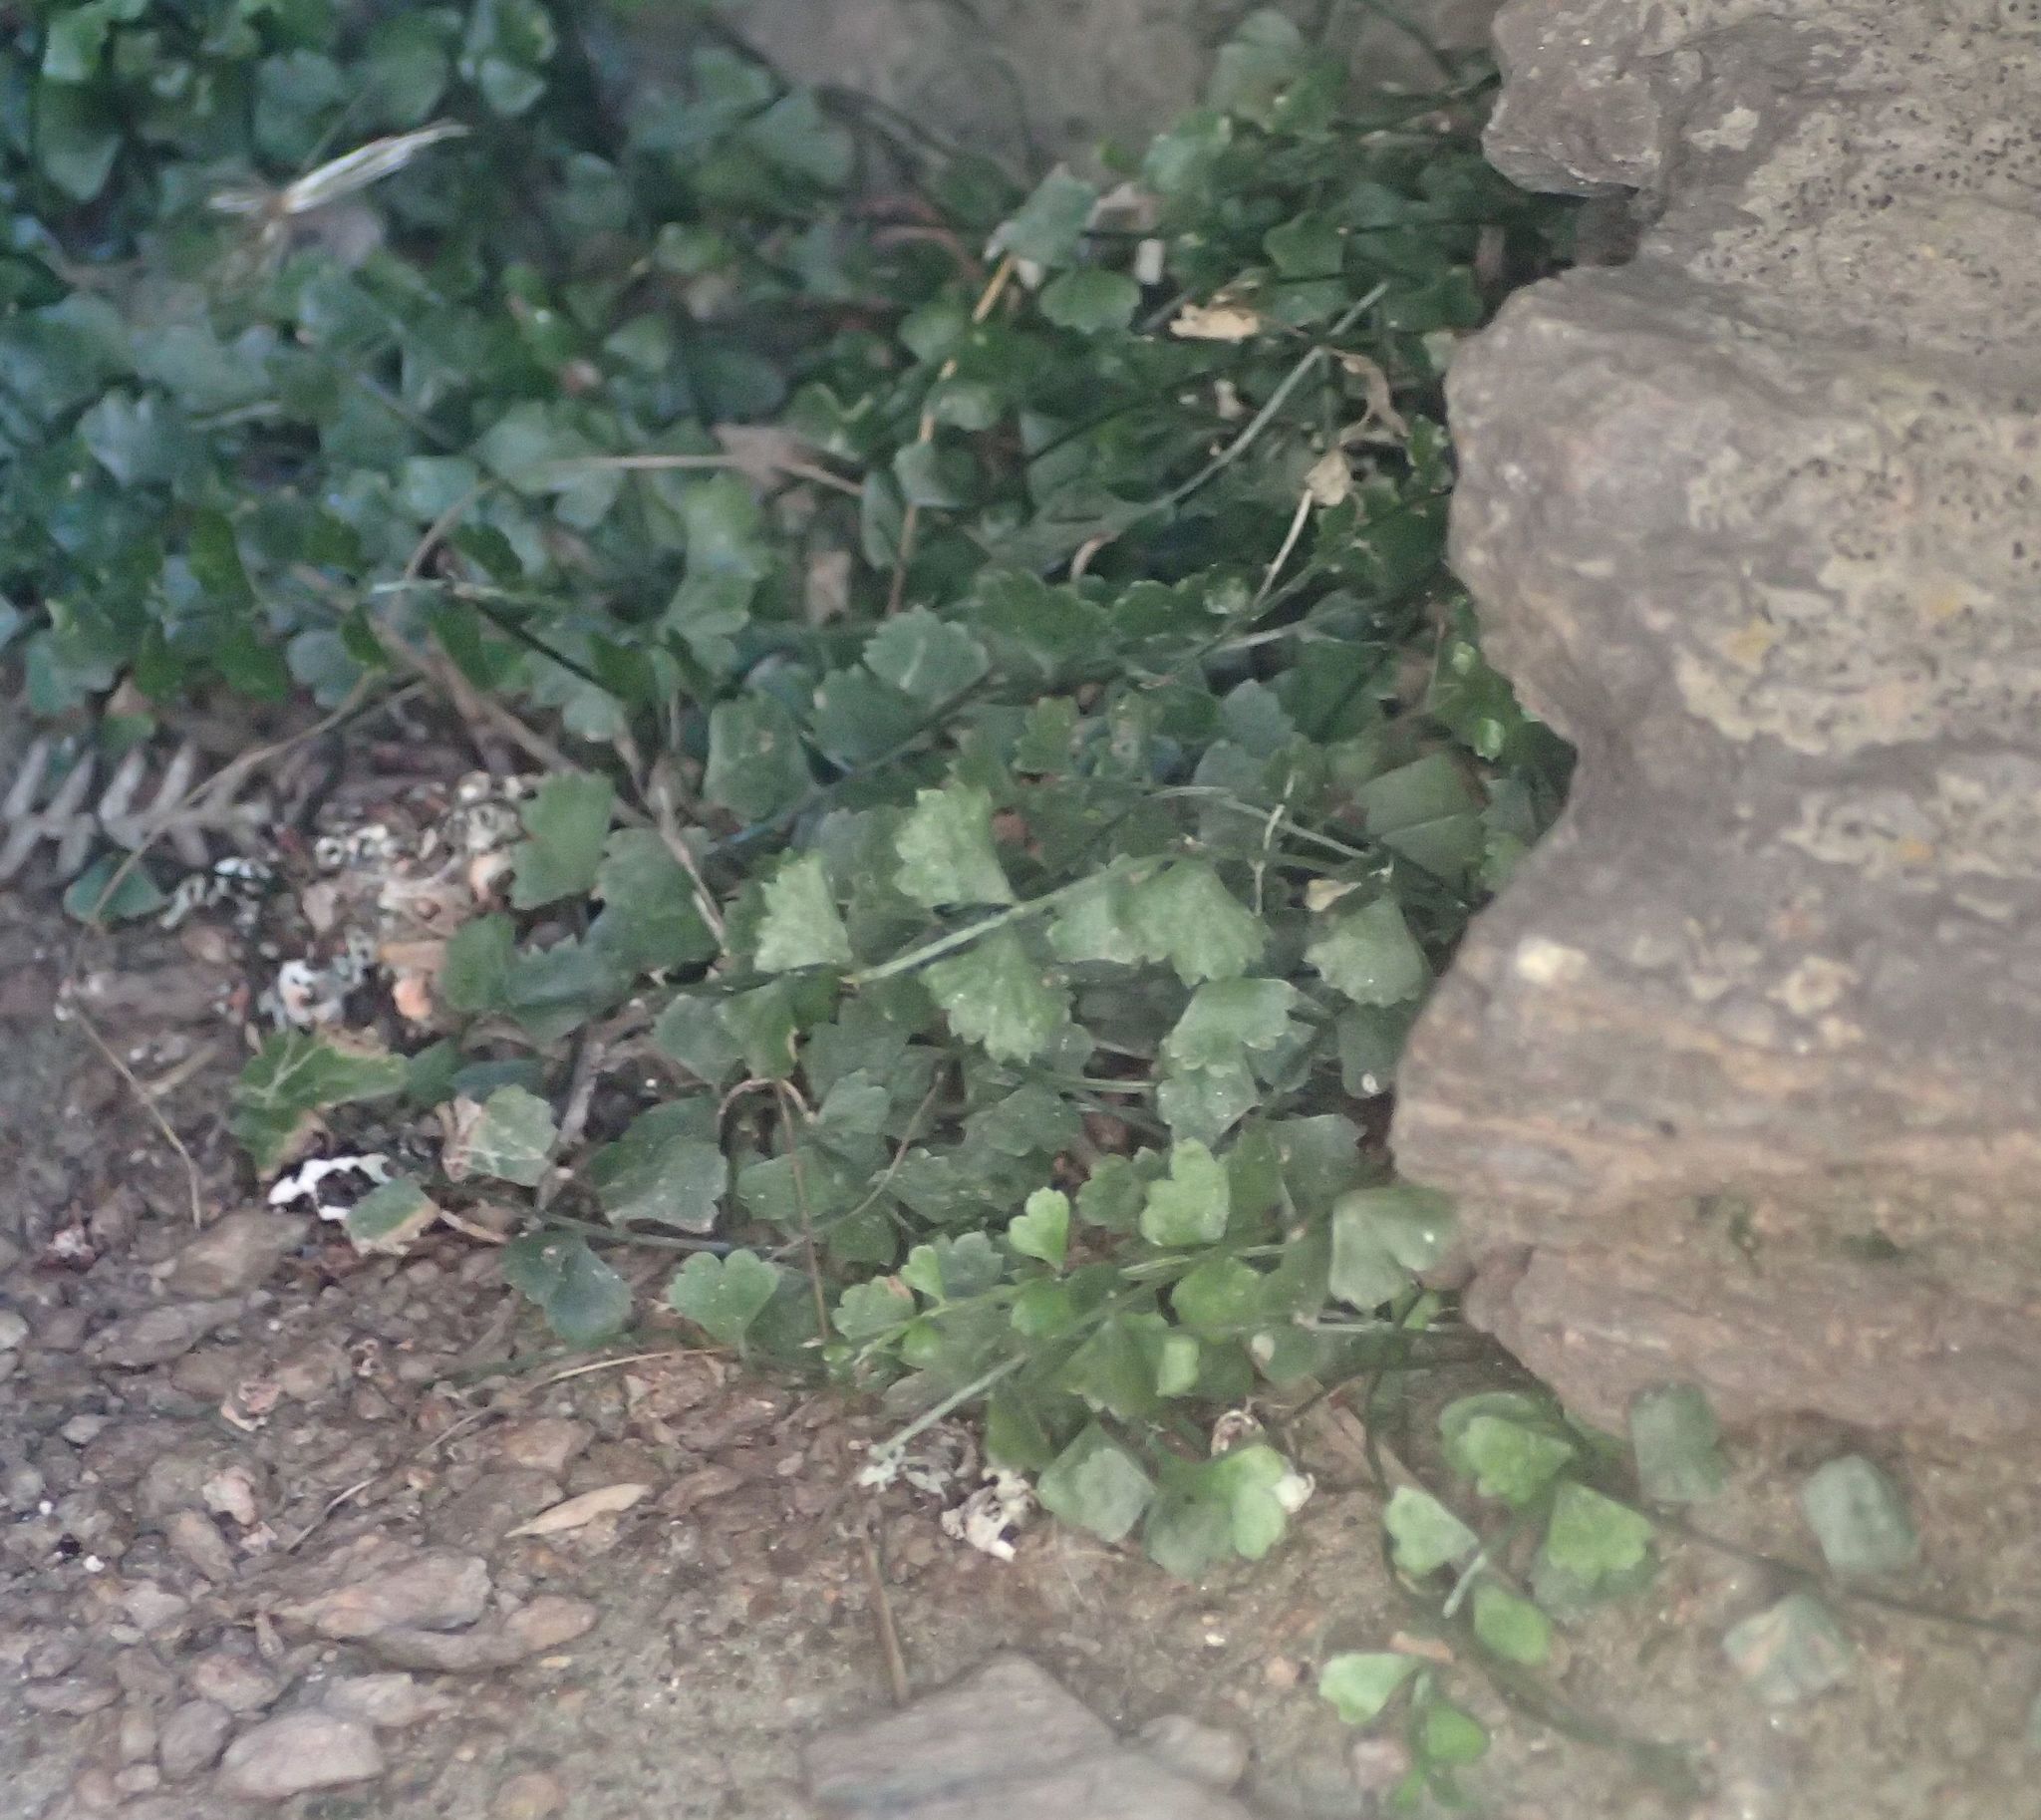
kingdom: Plantae
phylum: Tracheophyta
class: Polypodiopsida
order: Polypodiales
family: Aspleniaceae
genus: Asplenium
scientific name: Asplenium flabellifolium
